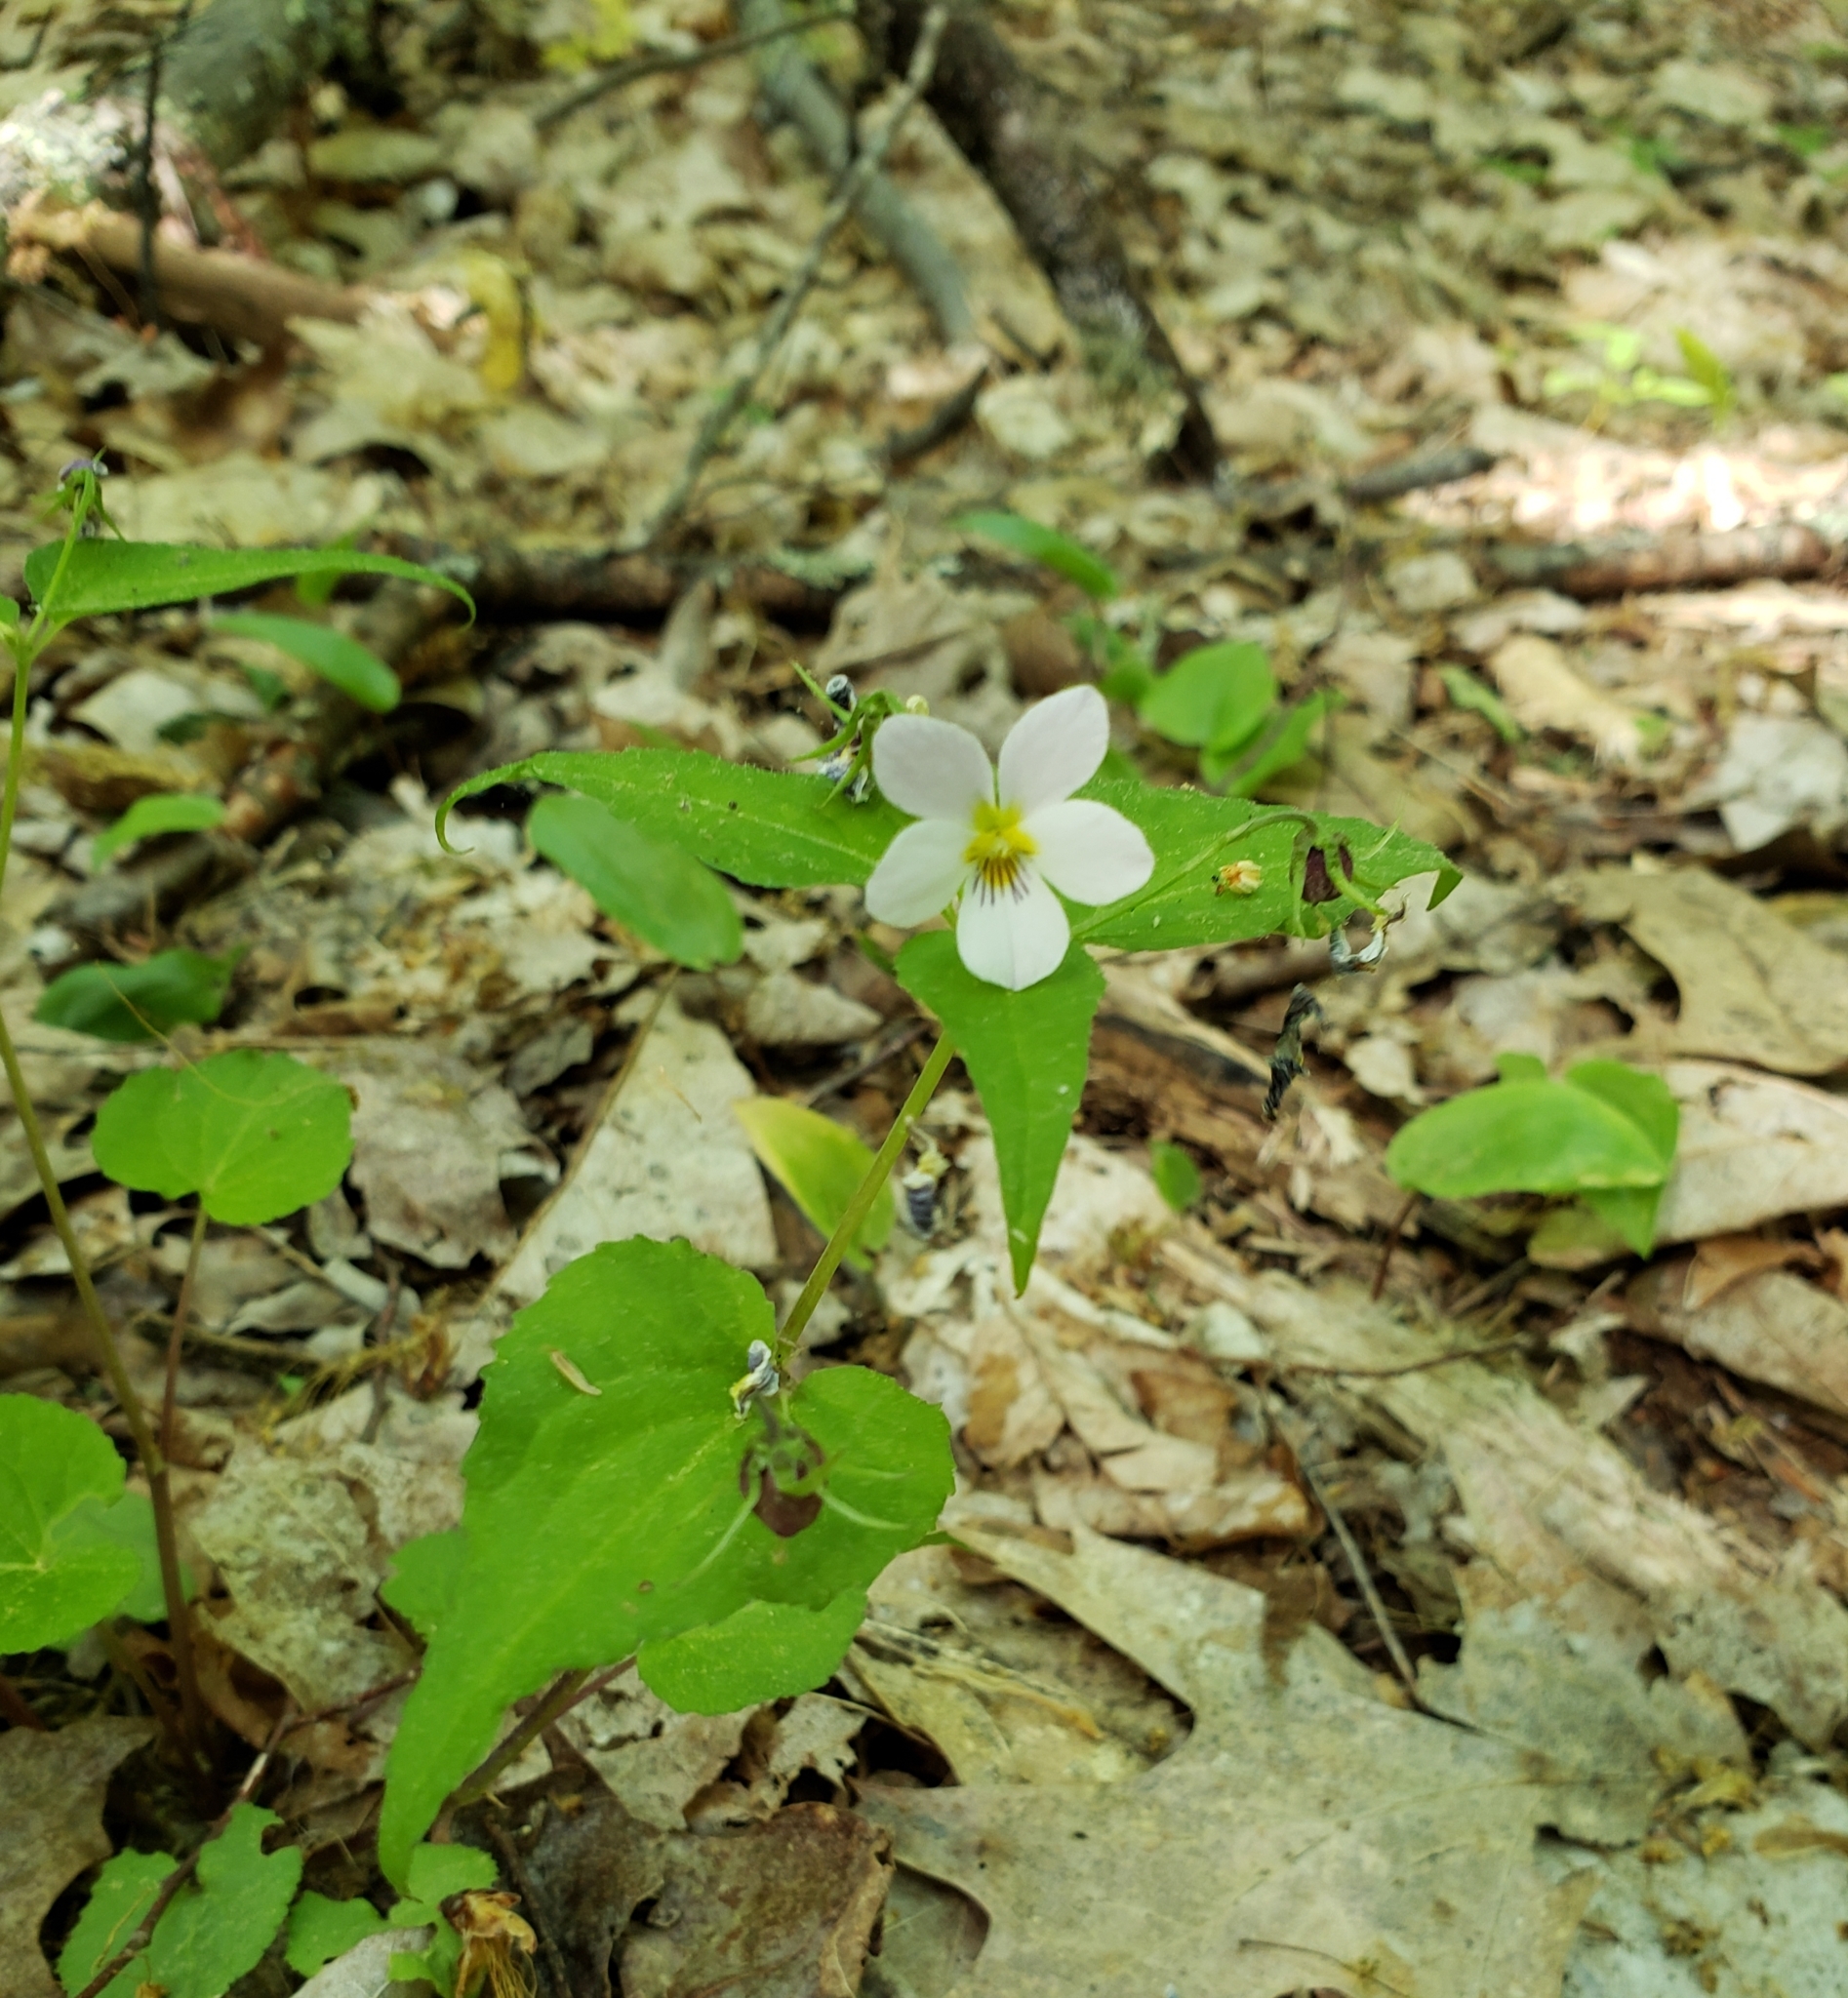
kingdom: Plantae
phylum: Tracheophyta
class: Magnoliopsida
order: Malpighiales
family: Violaceae
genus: Viola
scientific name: Viola canadensis
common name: Canada violet
